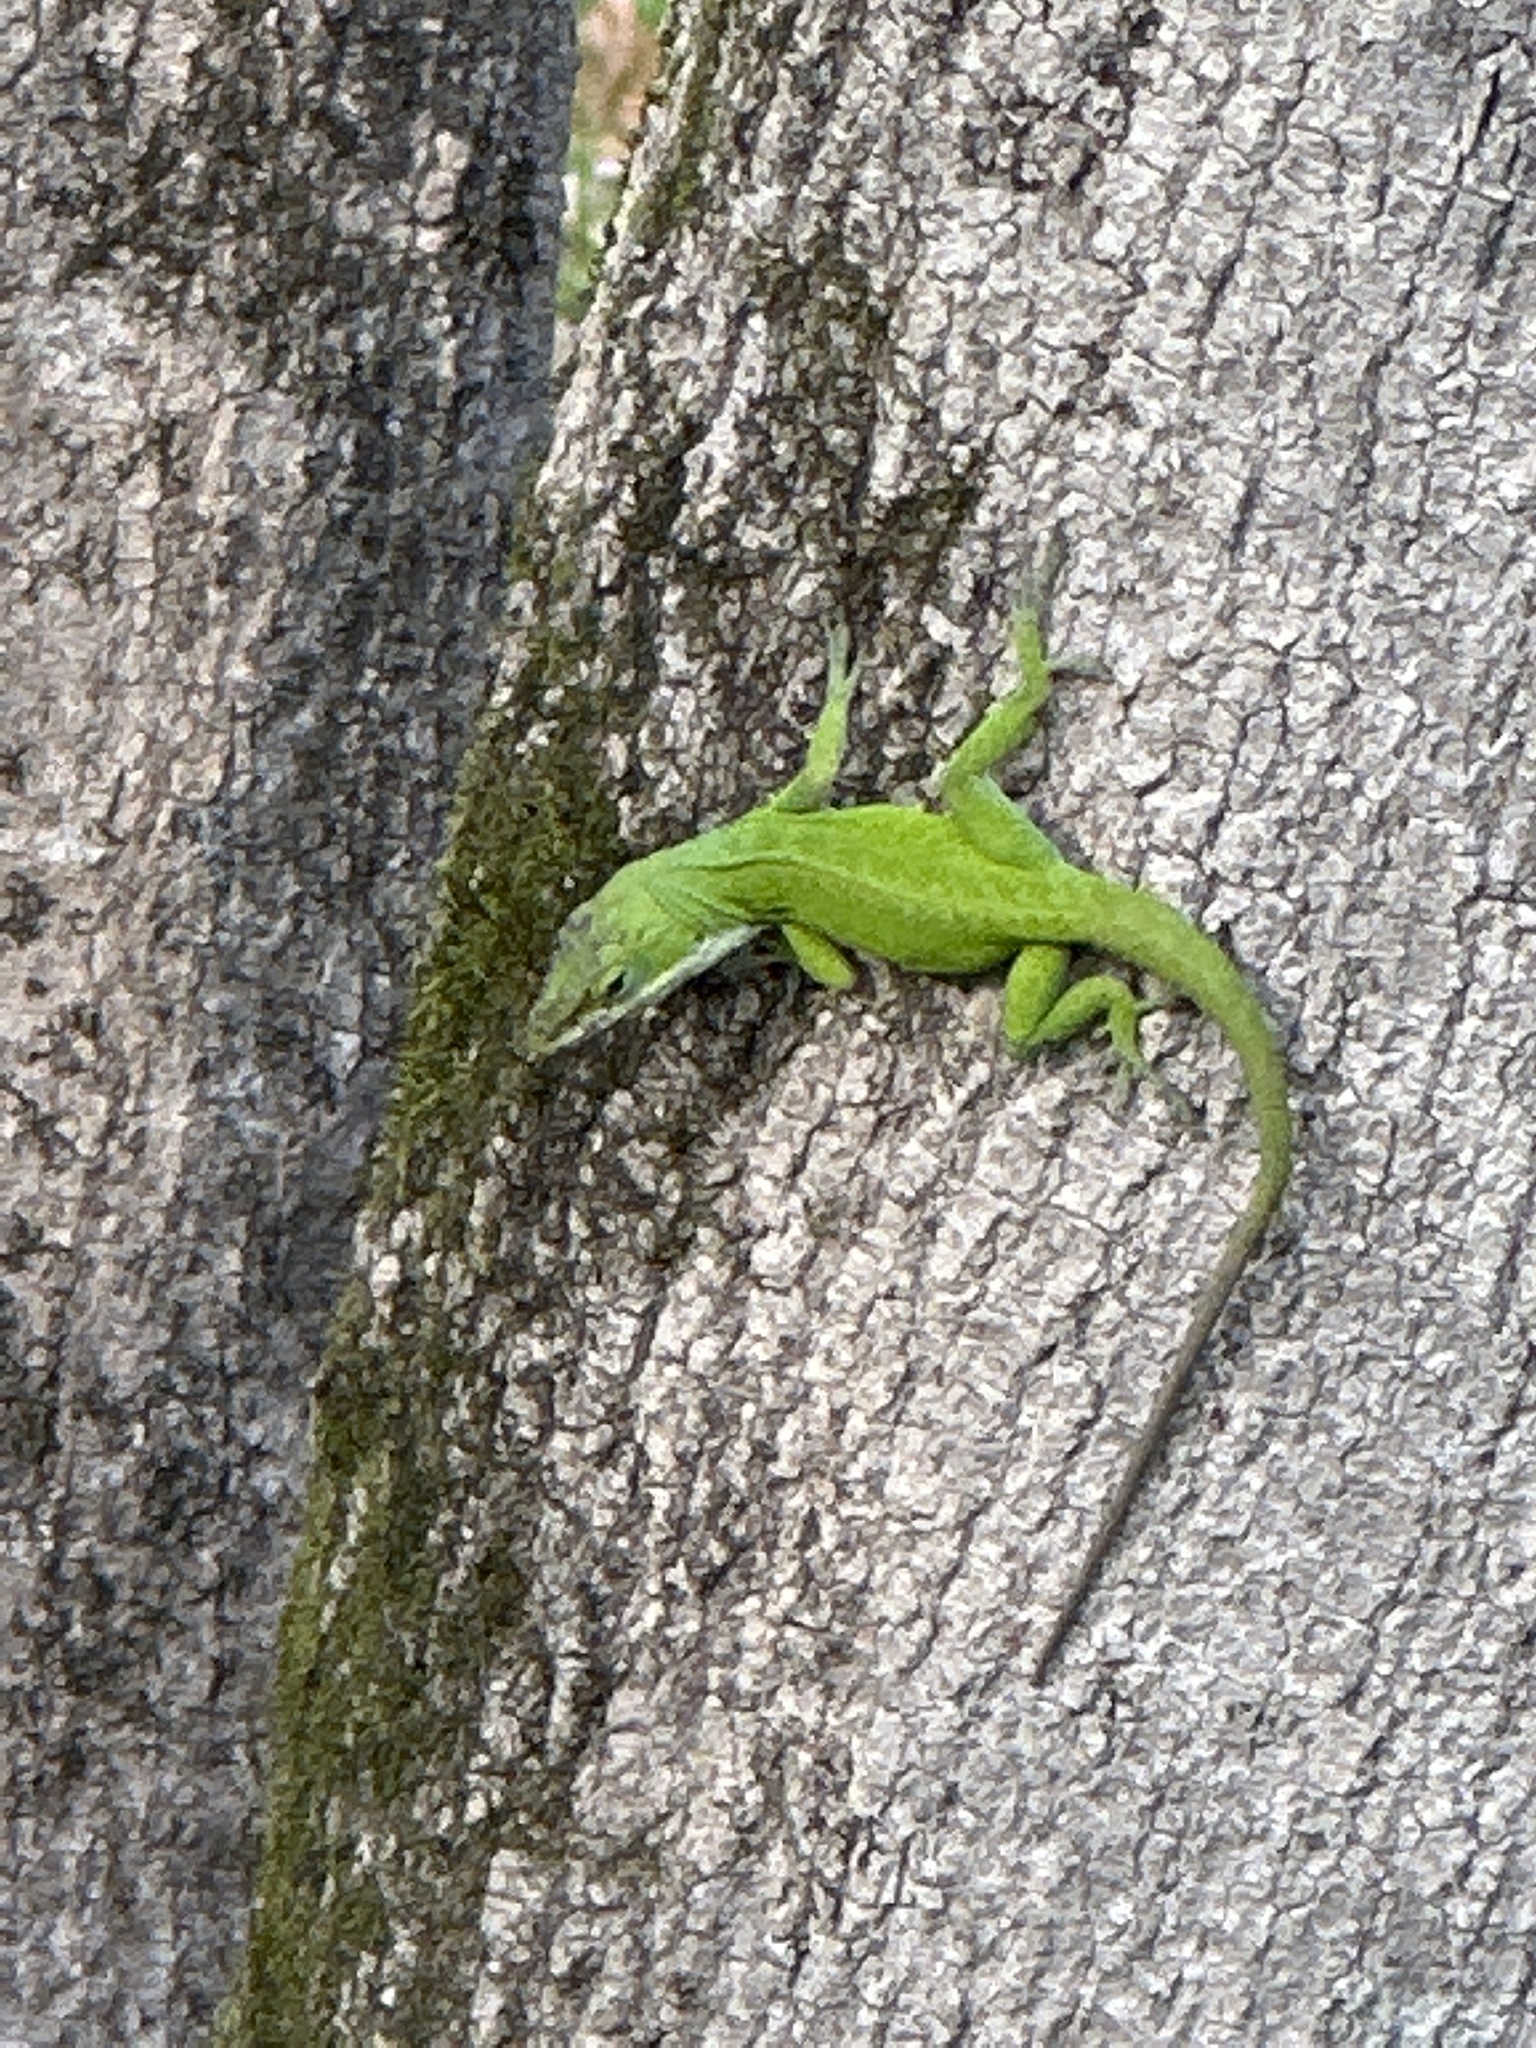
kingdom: Animalia
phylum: Chordata
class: Squamata
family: Dactyloidae
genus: Anolis
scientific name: Anolis carolinensis
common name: Green anole
